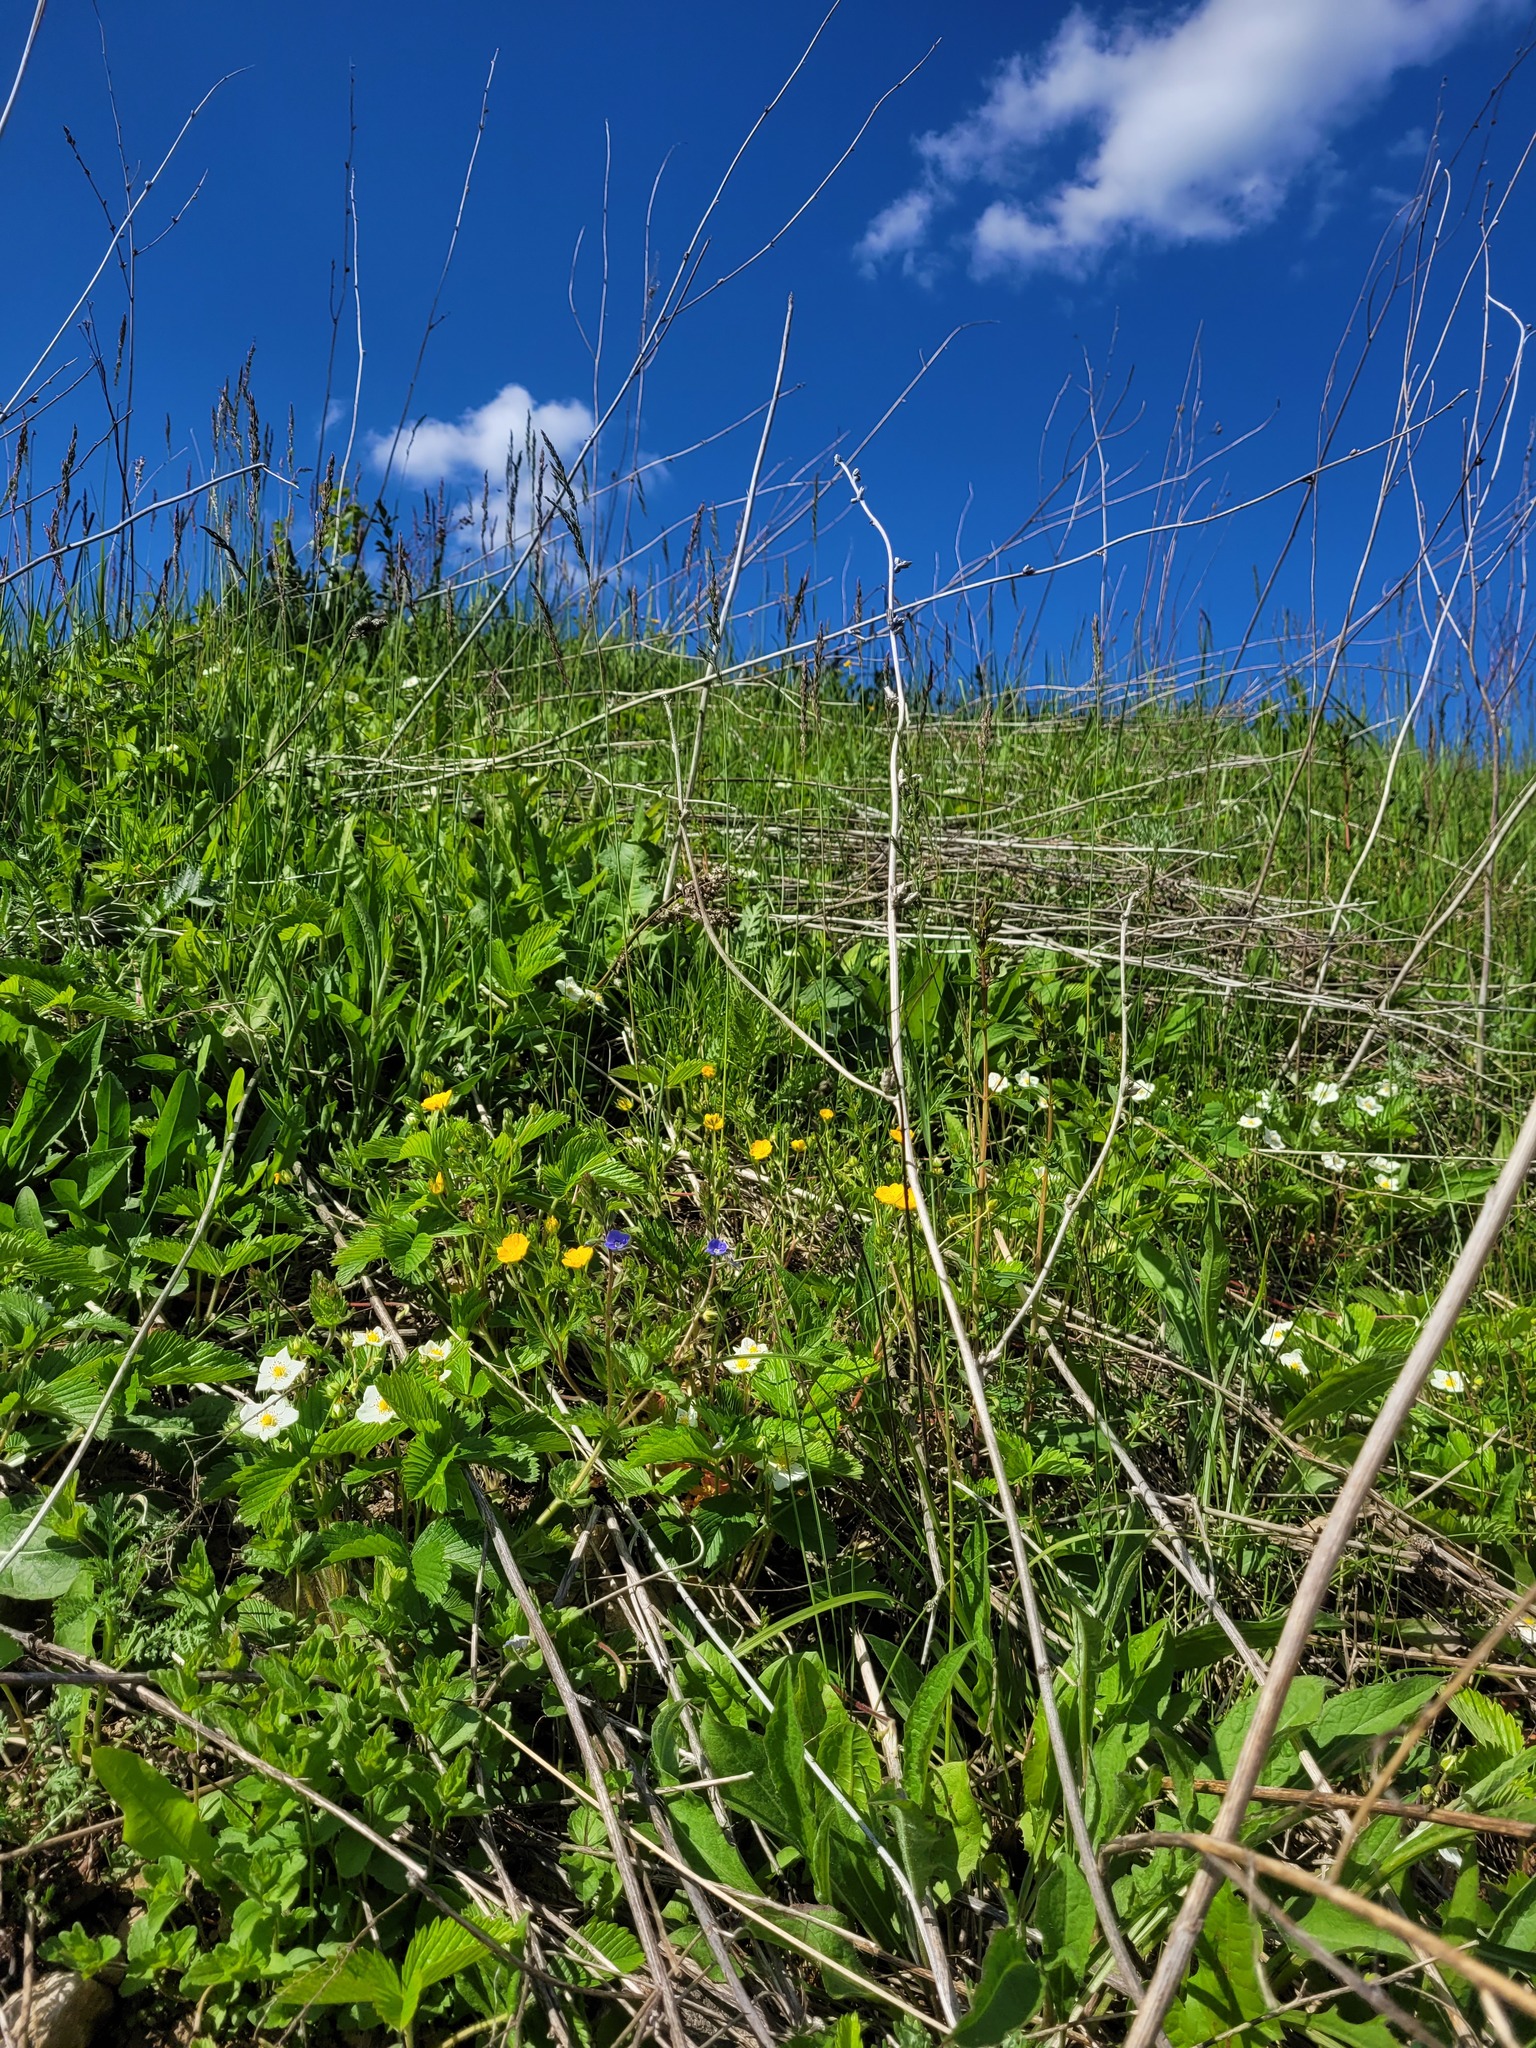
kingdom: Plantae
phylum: Tracheophyta
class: Magnoliopsida
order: Rosales
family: Rosaceae
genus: Potentilla
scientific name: Potentilla thuringiaca
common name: European cinquefoil
